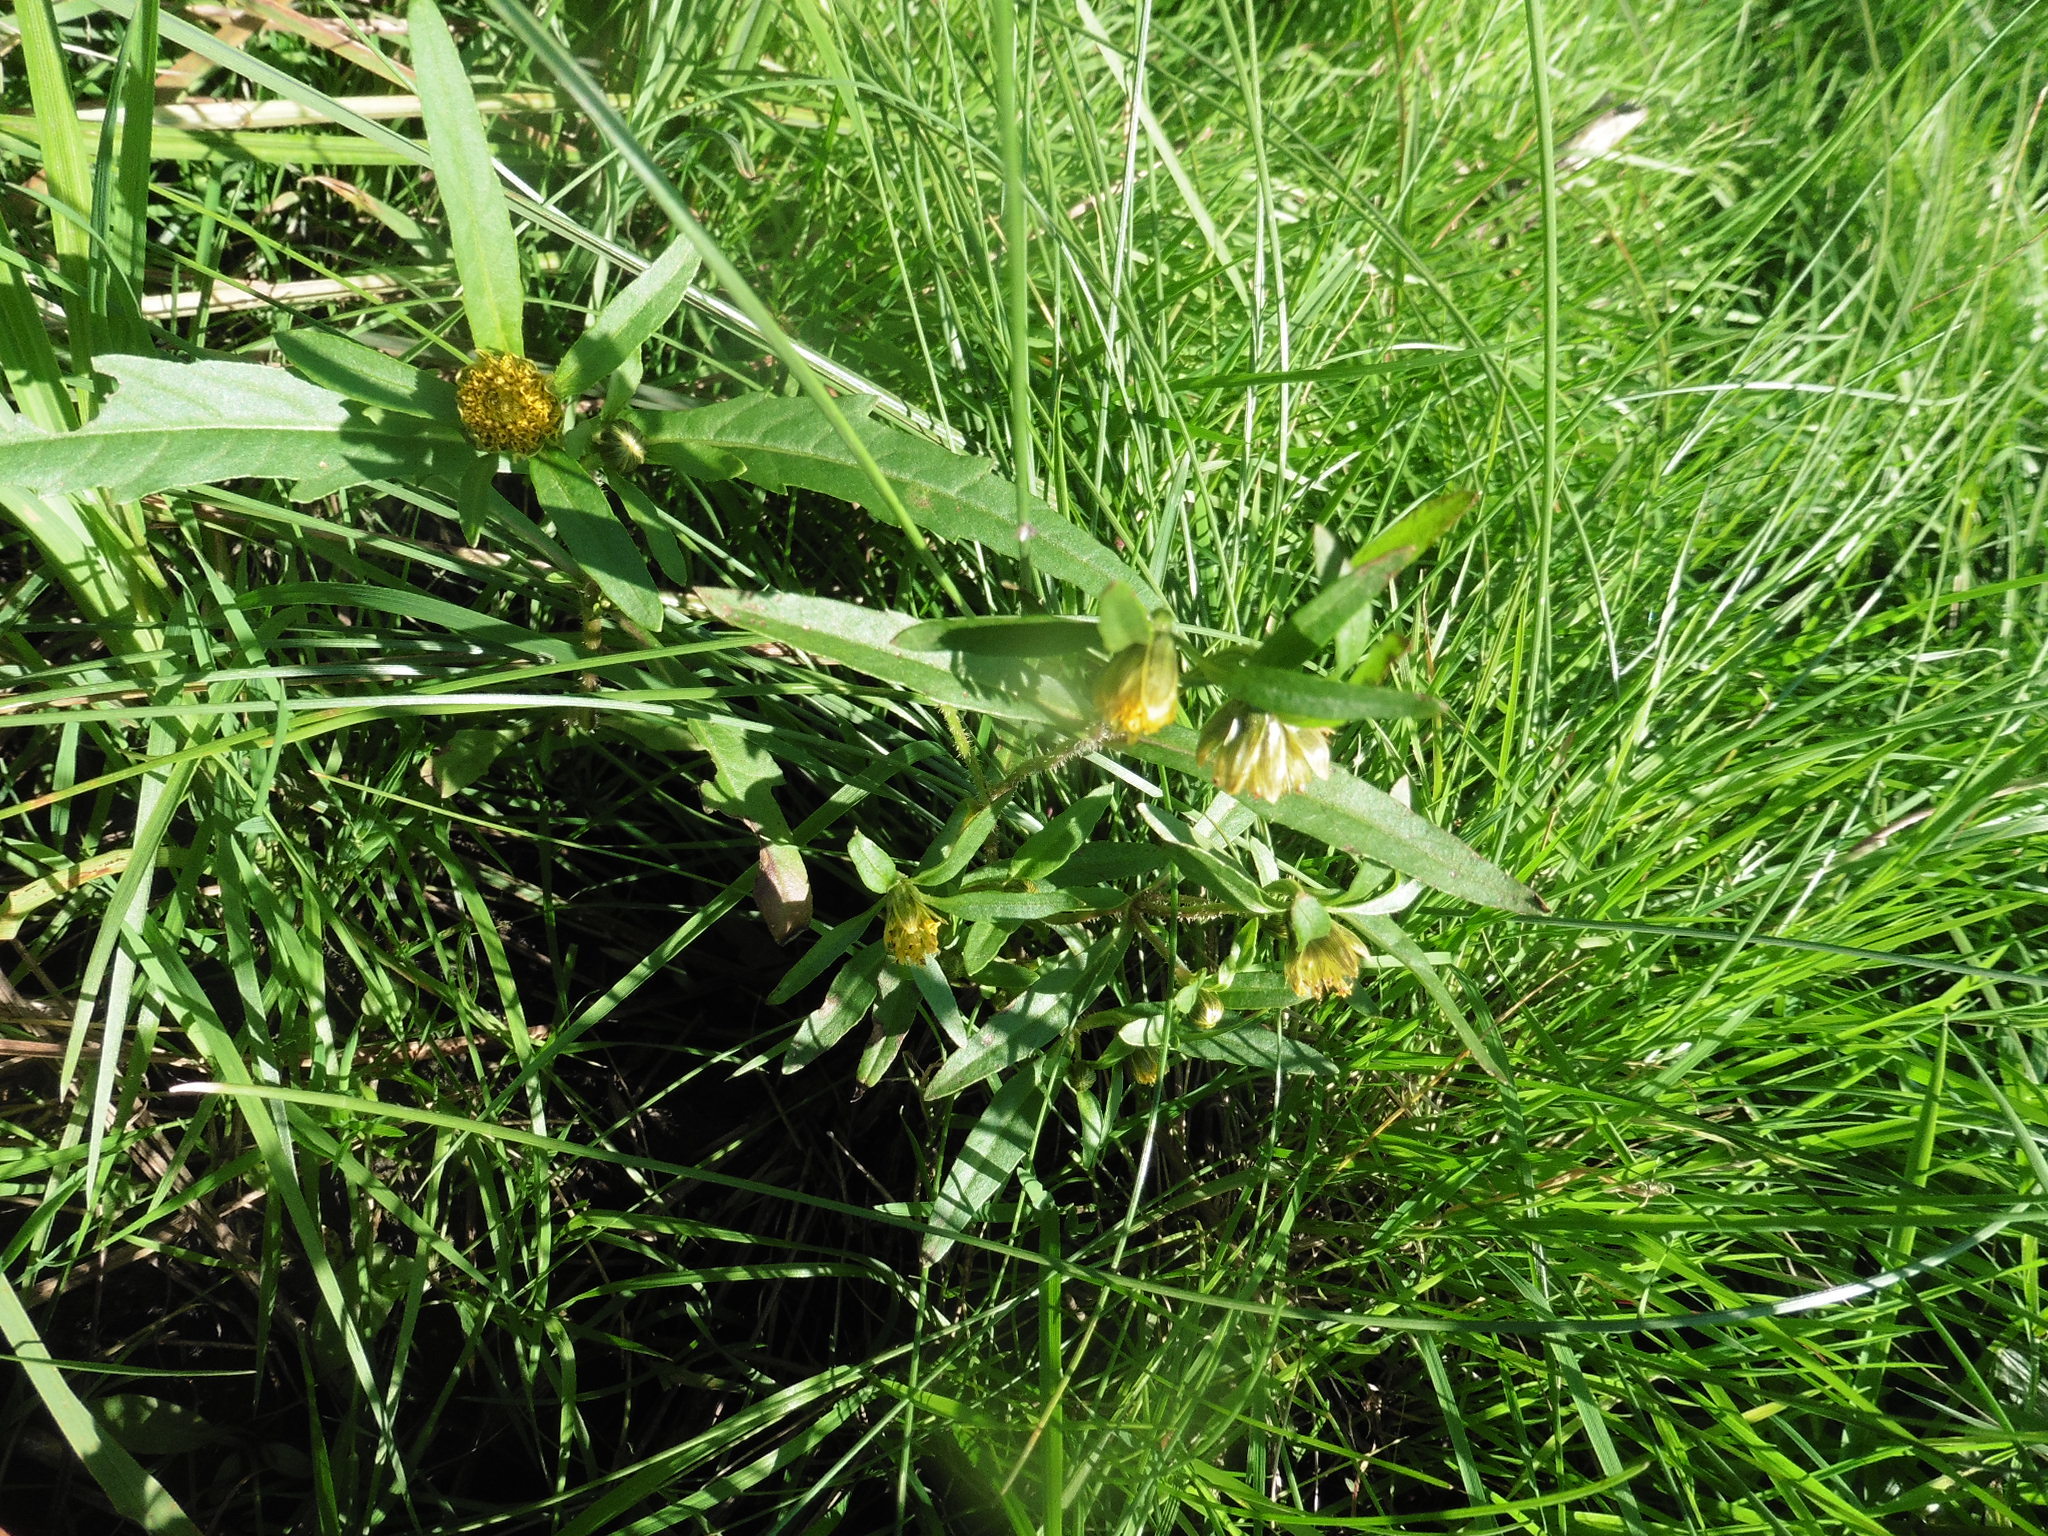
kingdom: Plantae
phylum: Tracheophyta
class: Magnoliopsida
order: Asterales
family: Asteraceae
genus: Bidens
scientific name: Bidens cernua
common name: Nodding bur-marigold
